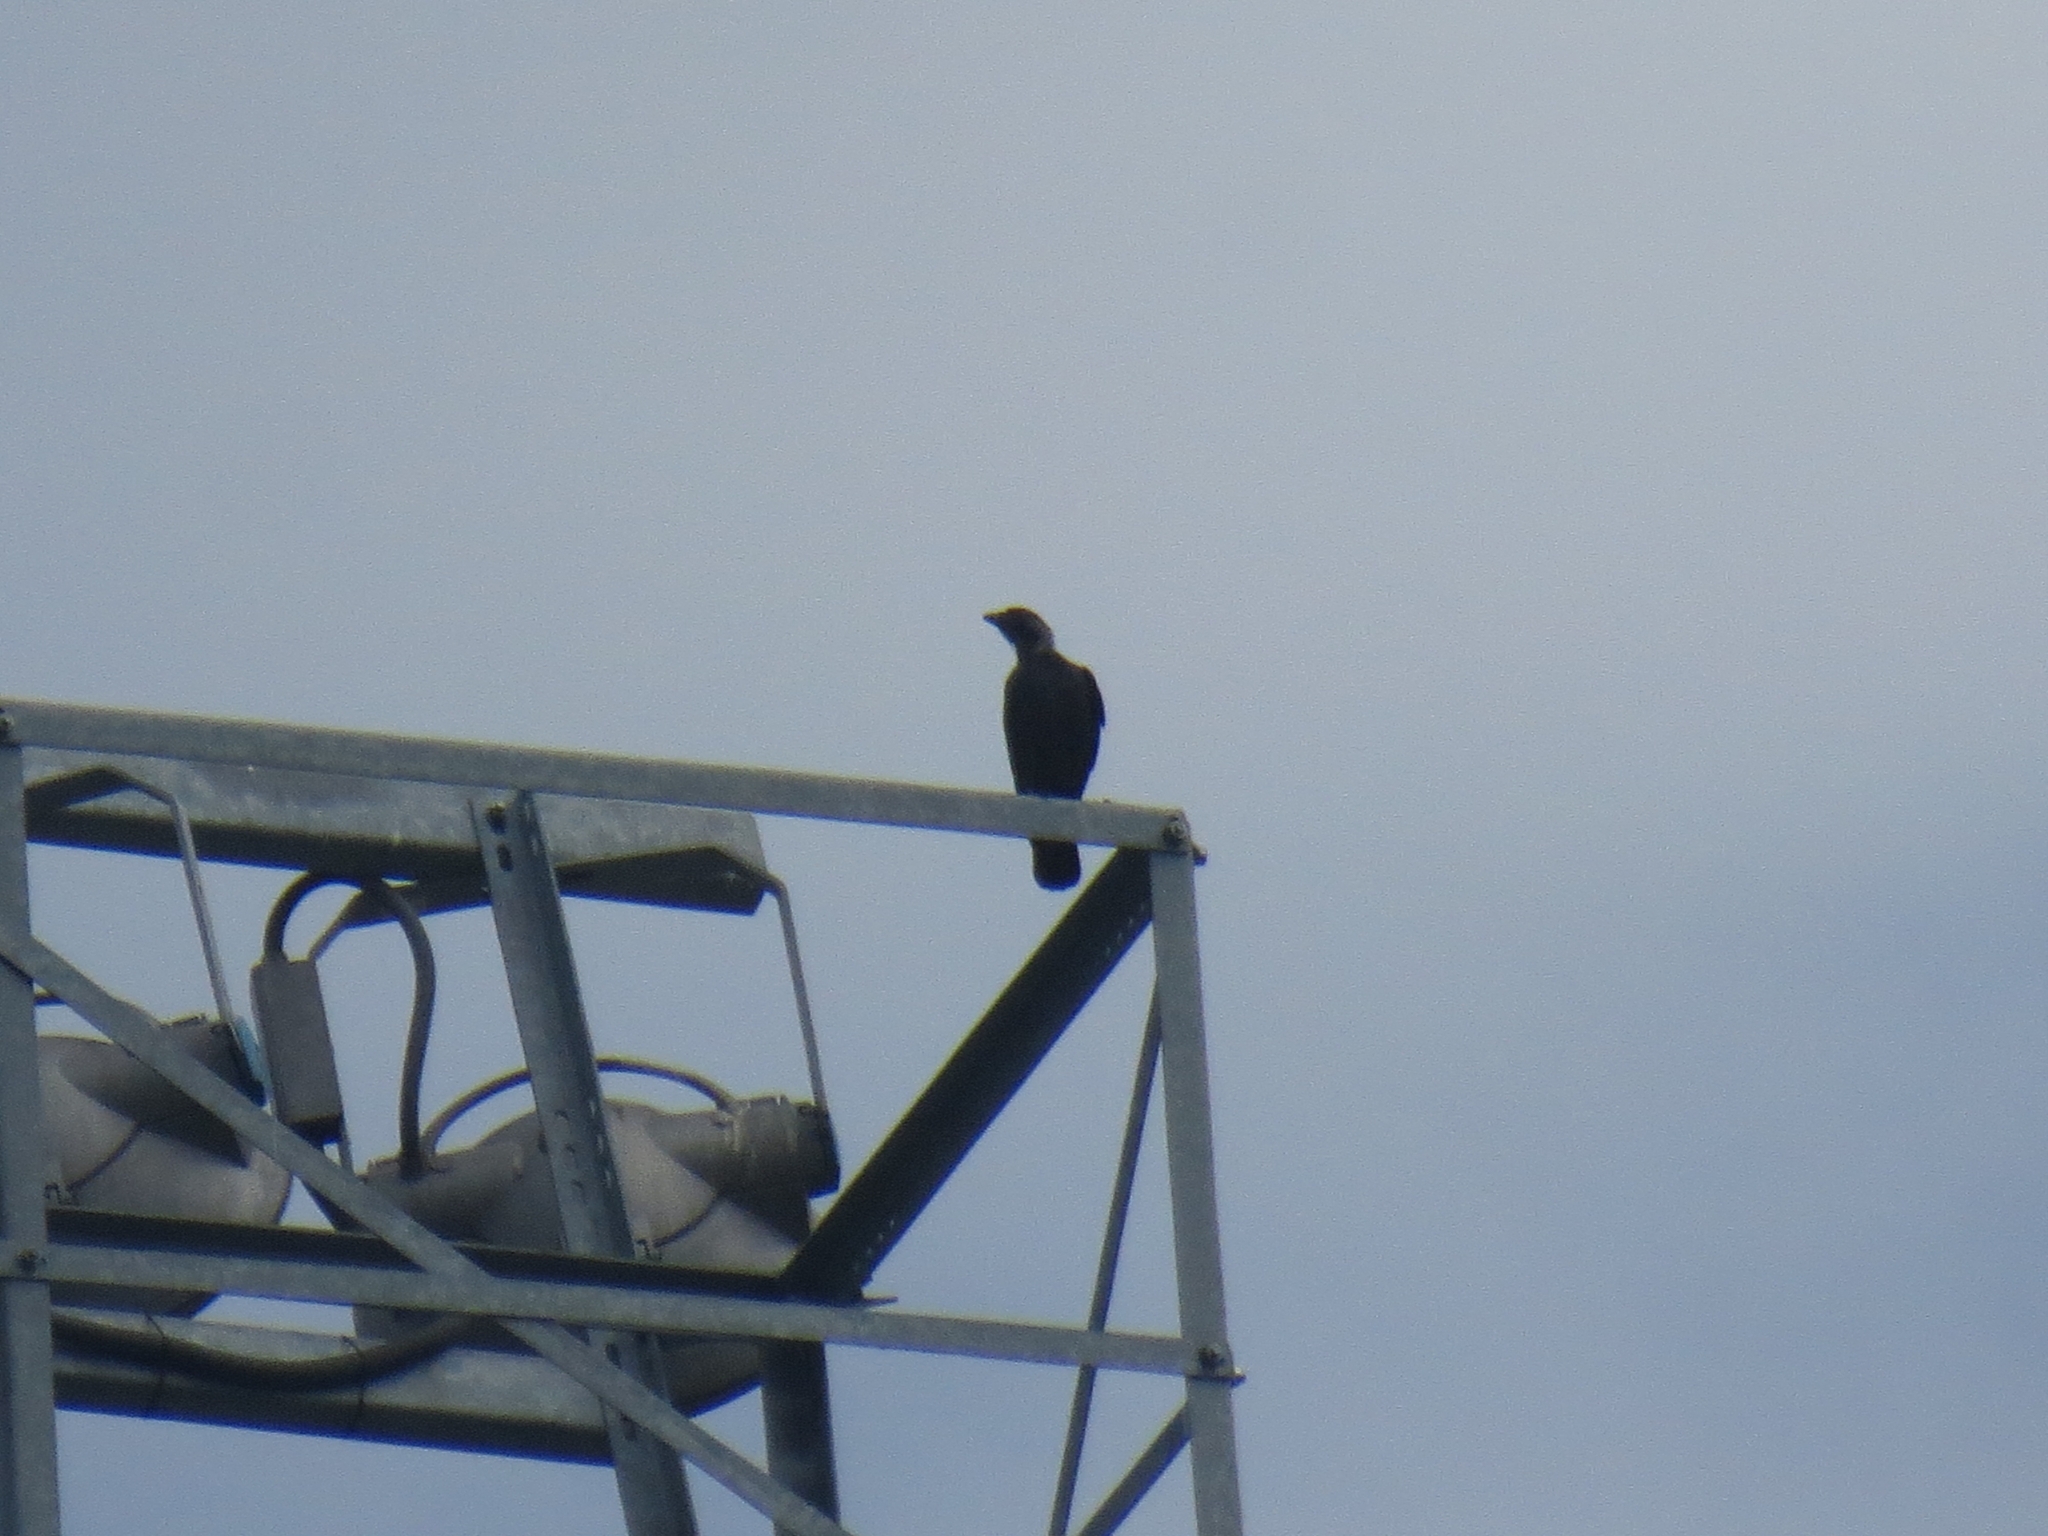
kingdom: Animalia
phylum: Chordata
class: Aves
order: Passeriformes
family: Corvidae
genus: Coloeus
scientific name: Coloeus monedula
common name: Western jackdaw
